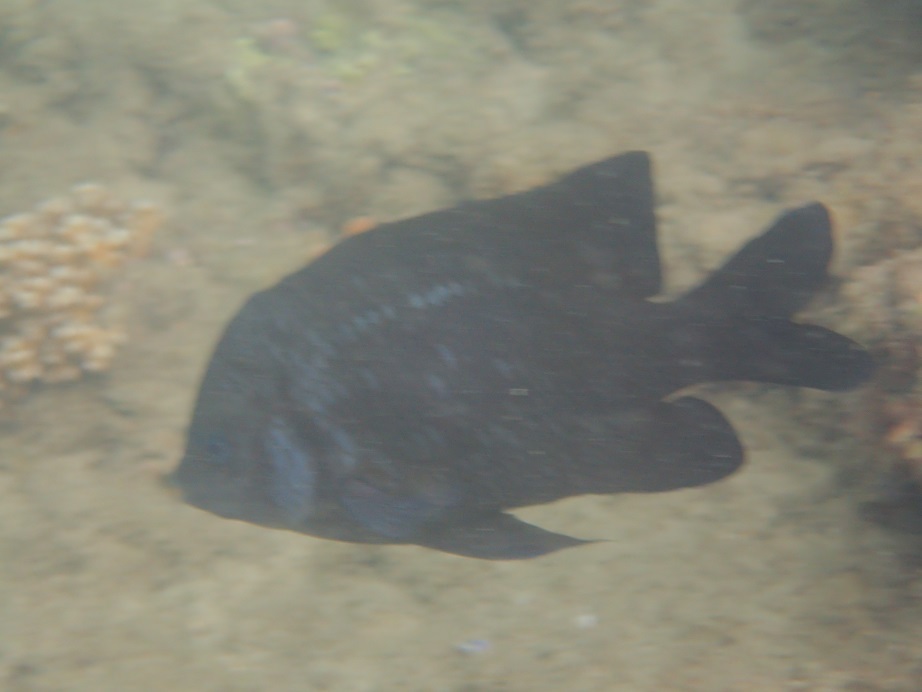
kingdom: Animalia
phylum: Chordata
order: Perciformes
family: Pomacentridae
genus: Parma
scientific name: Parma oligolepis
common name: Big-scale parma
